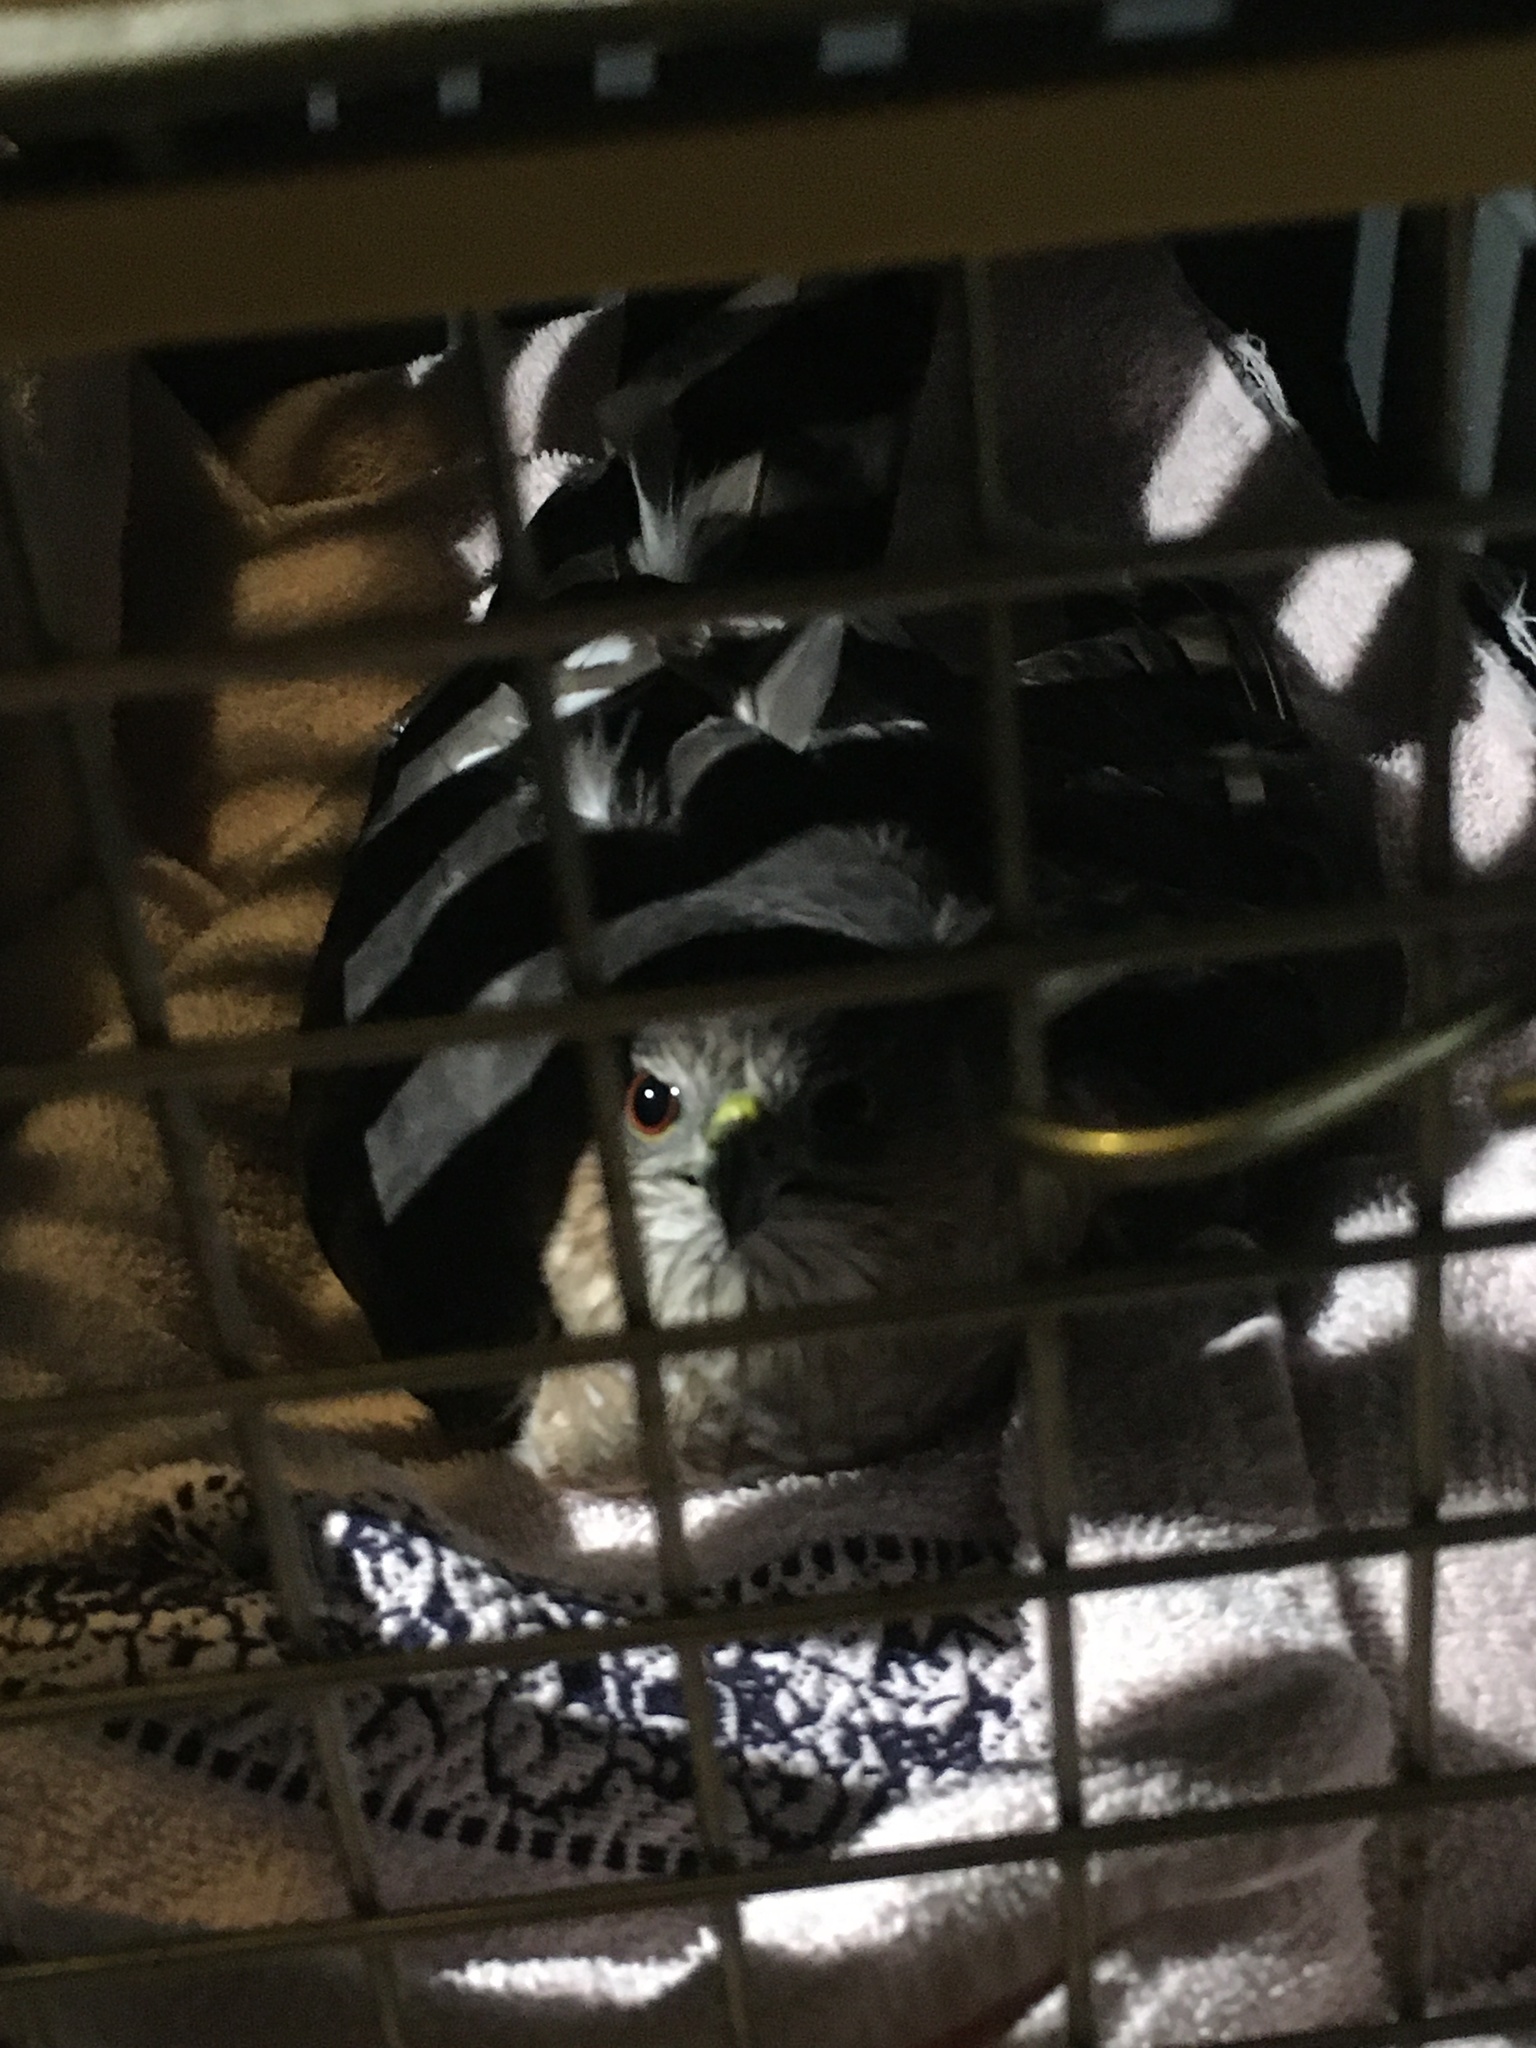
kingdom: Animalia
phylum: Chordata
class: Aves
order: Accipitriformes
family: Accipitridae
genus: Accipiter
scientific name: Accipiter striatus
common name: Sharp-shinned hawk
